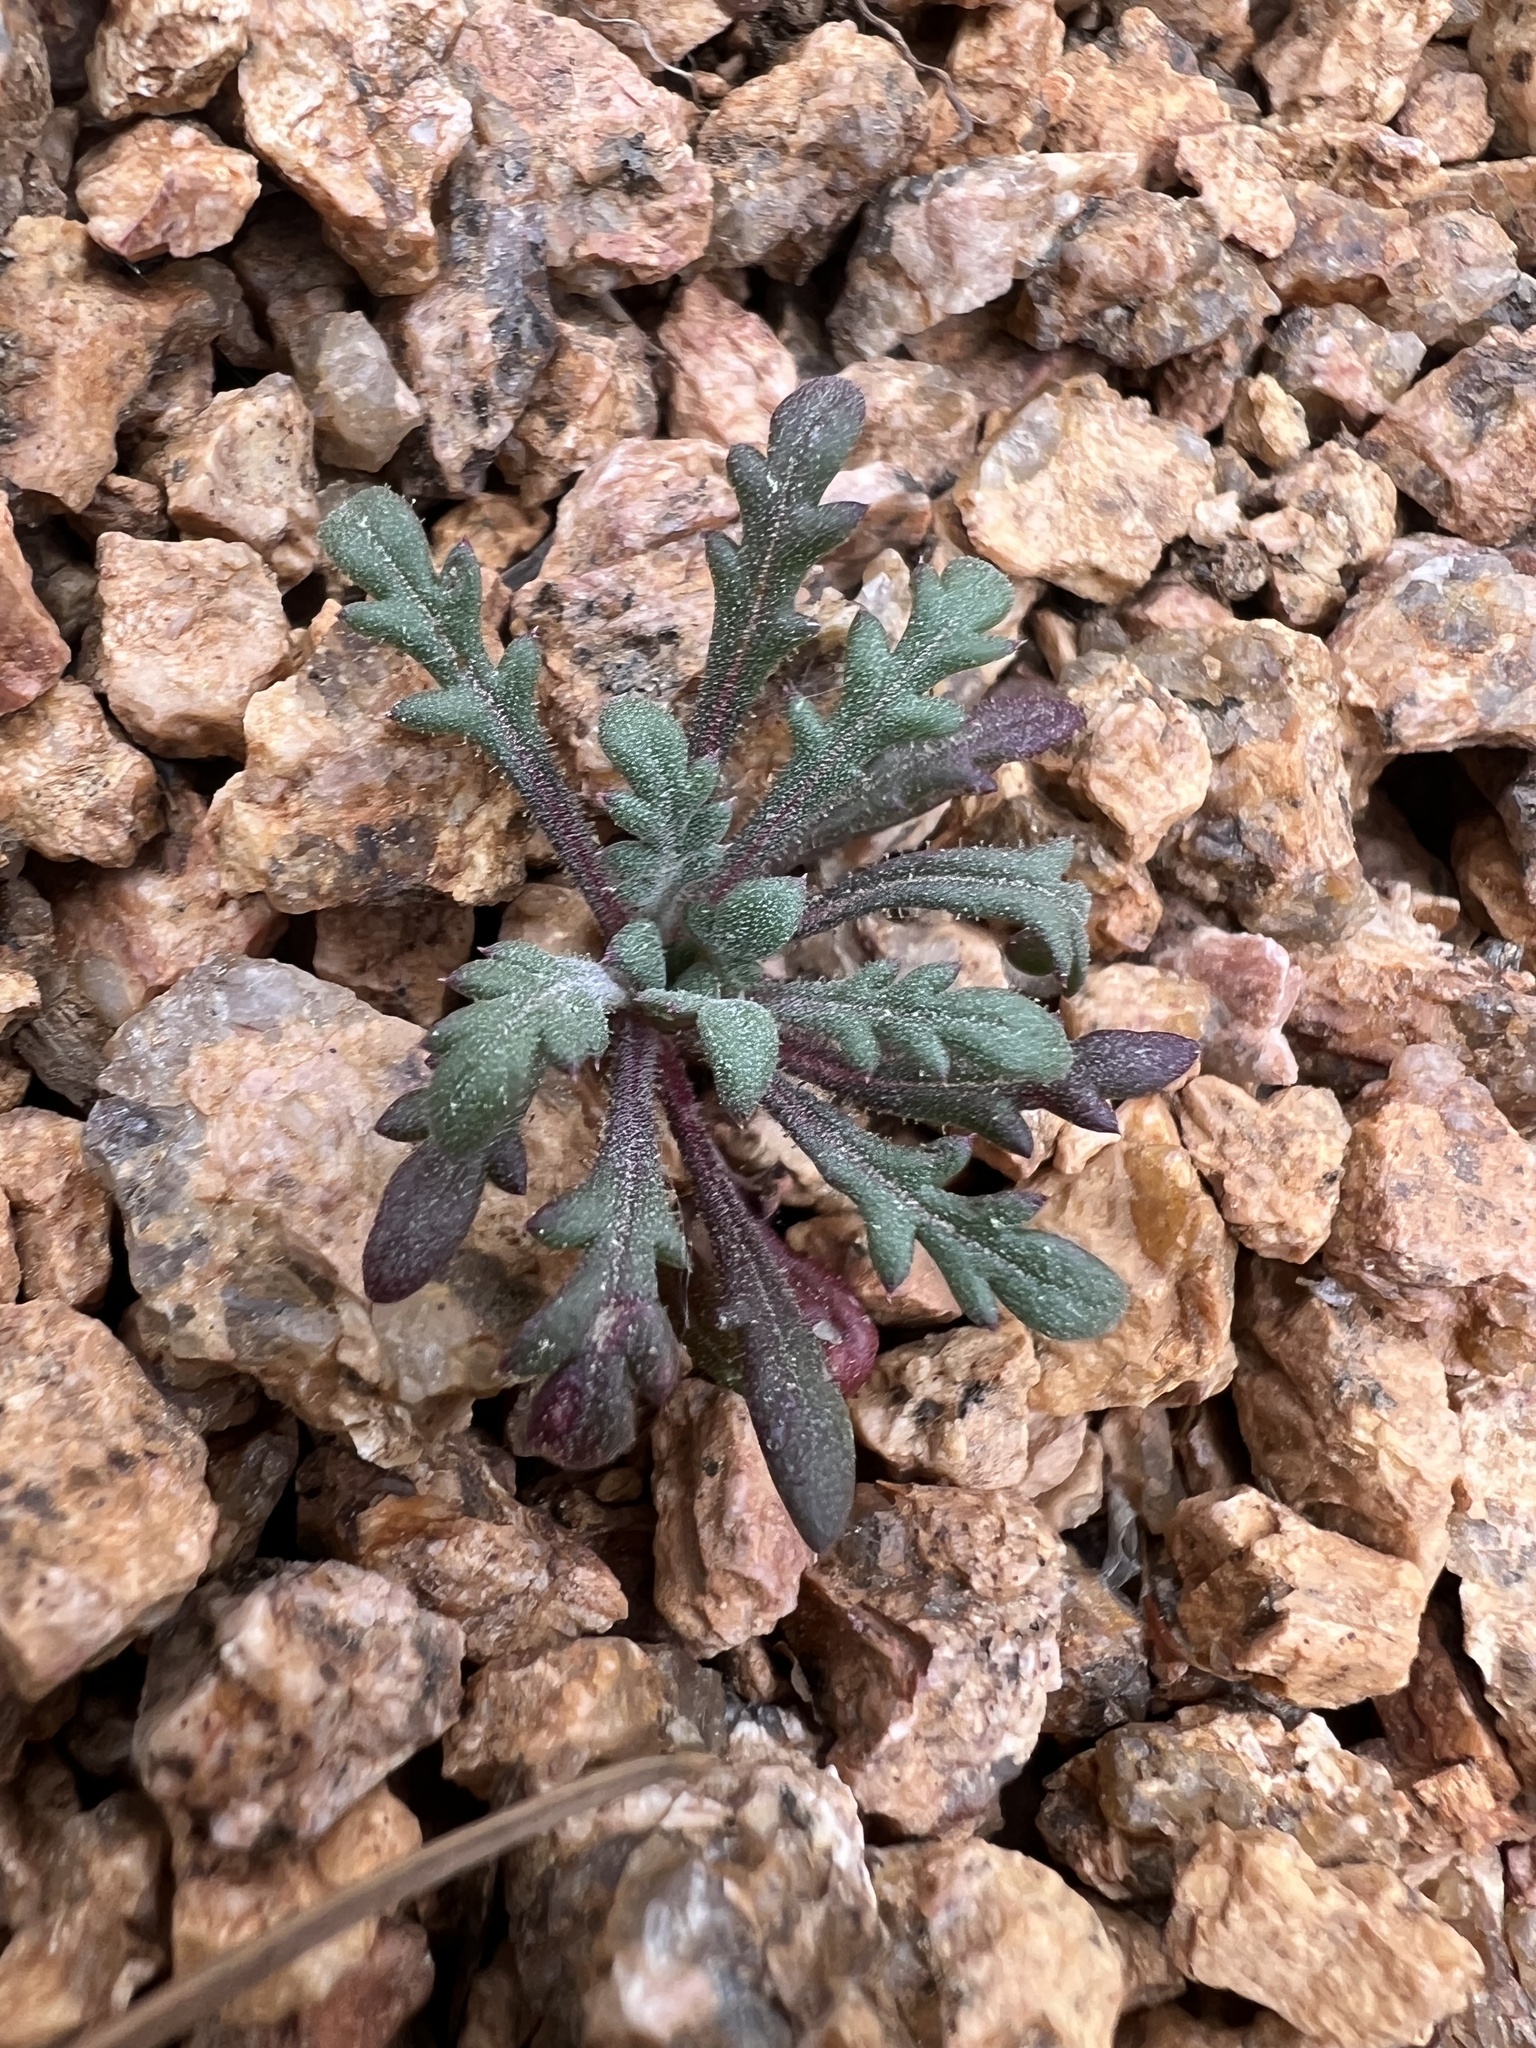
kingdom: Plantae
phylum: Tracheophyta
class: Magnoliopsida
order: Ericales
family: Polemoniaceae
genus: Aliciella
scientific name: Aliciella pinnatifida
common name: Sticky gilia
